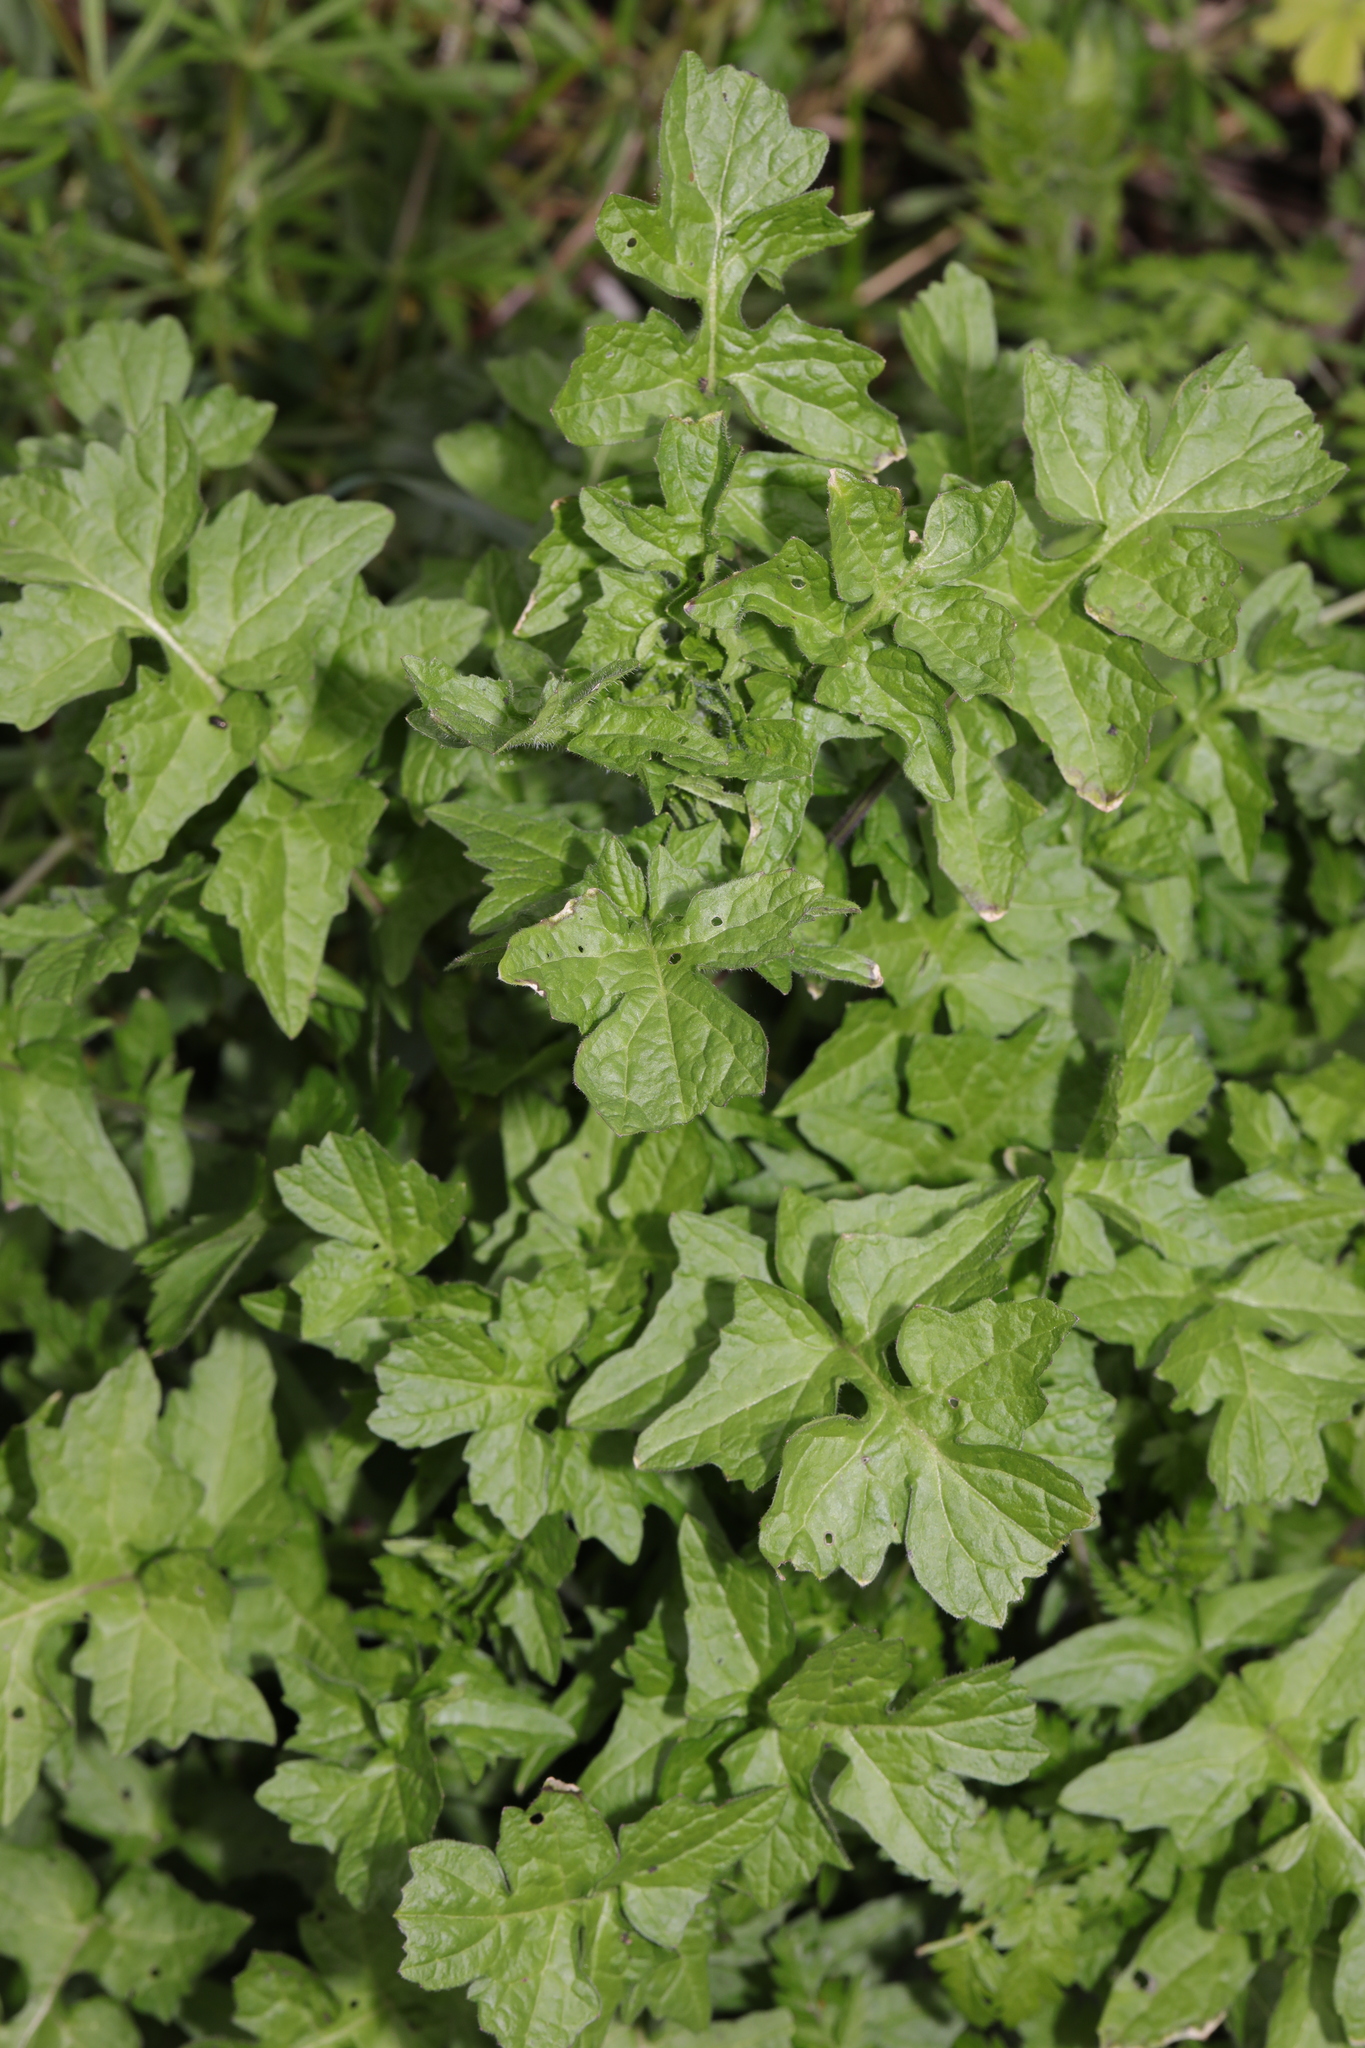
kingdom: Plantae
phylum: Tracheophyta
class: Magnoliopsida
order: Brassicales
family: Brassicaceae
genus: Sisymbrium
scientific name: Sisymbrium officinale
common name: Hedge mustard
